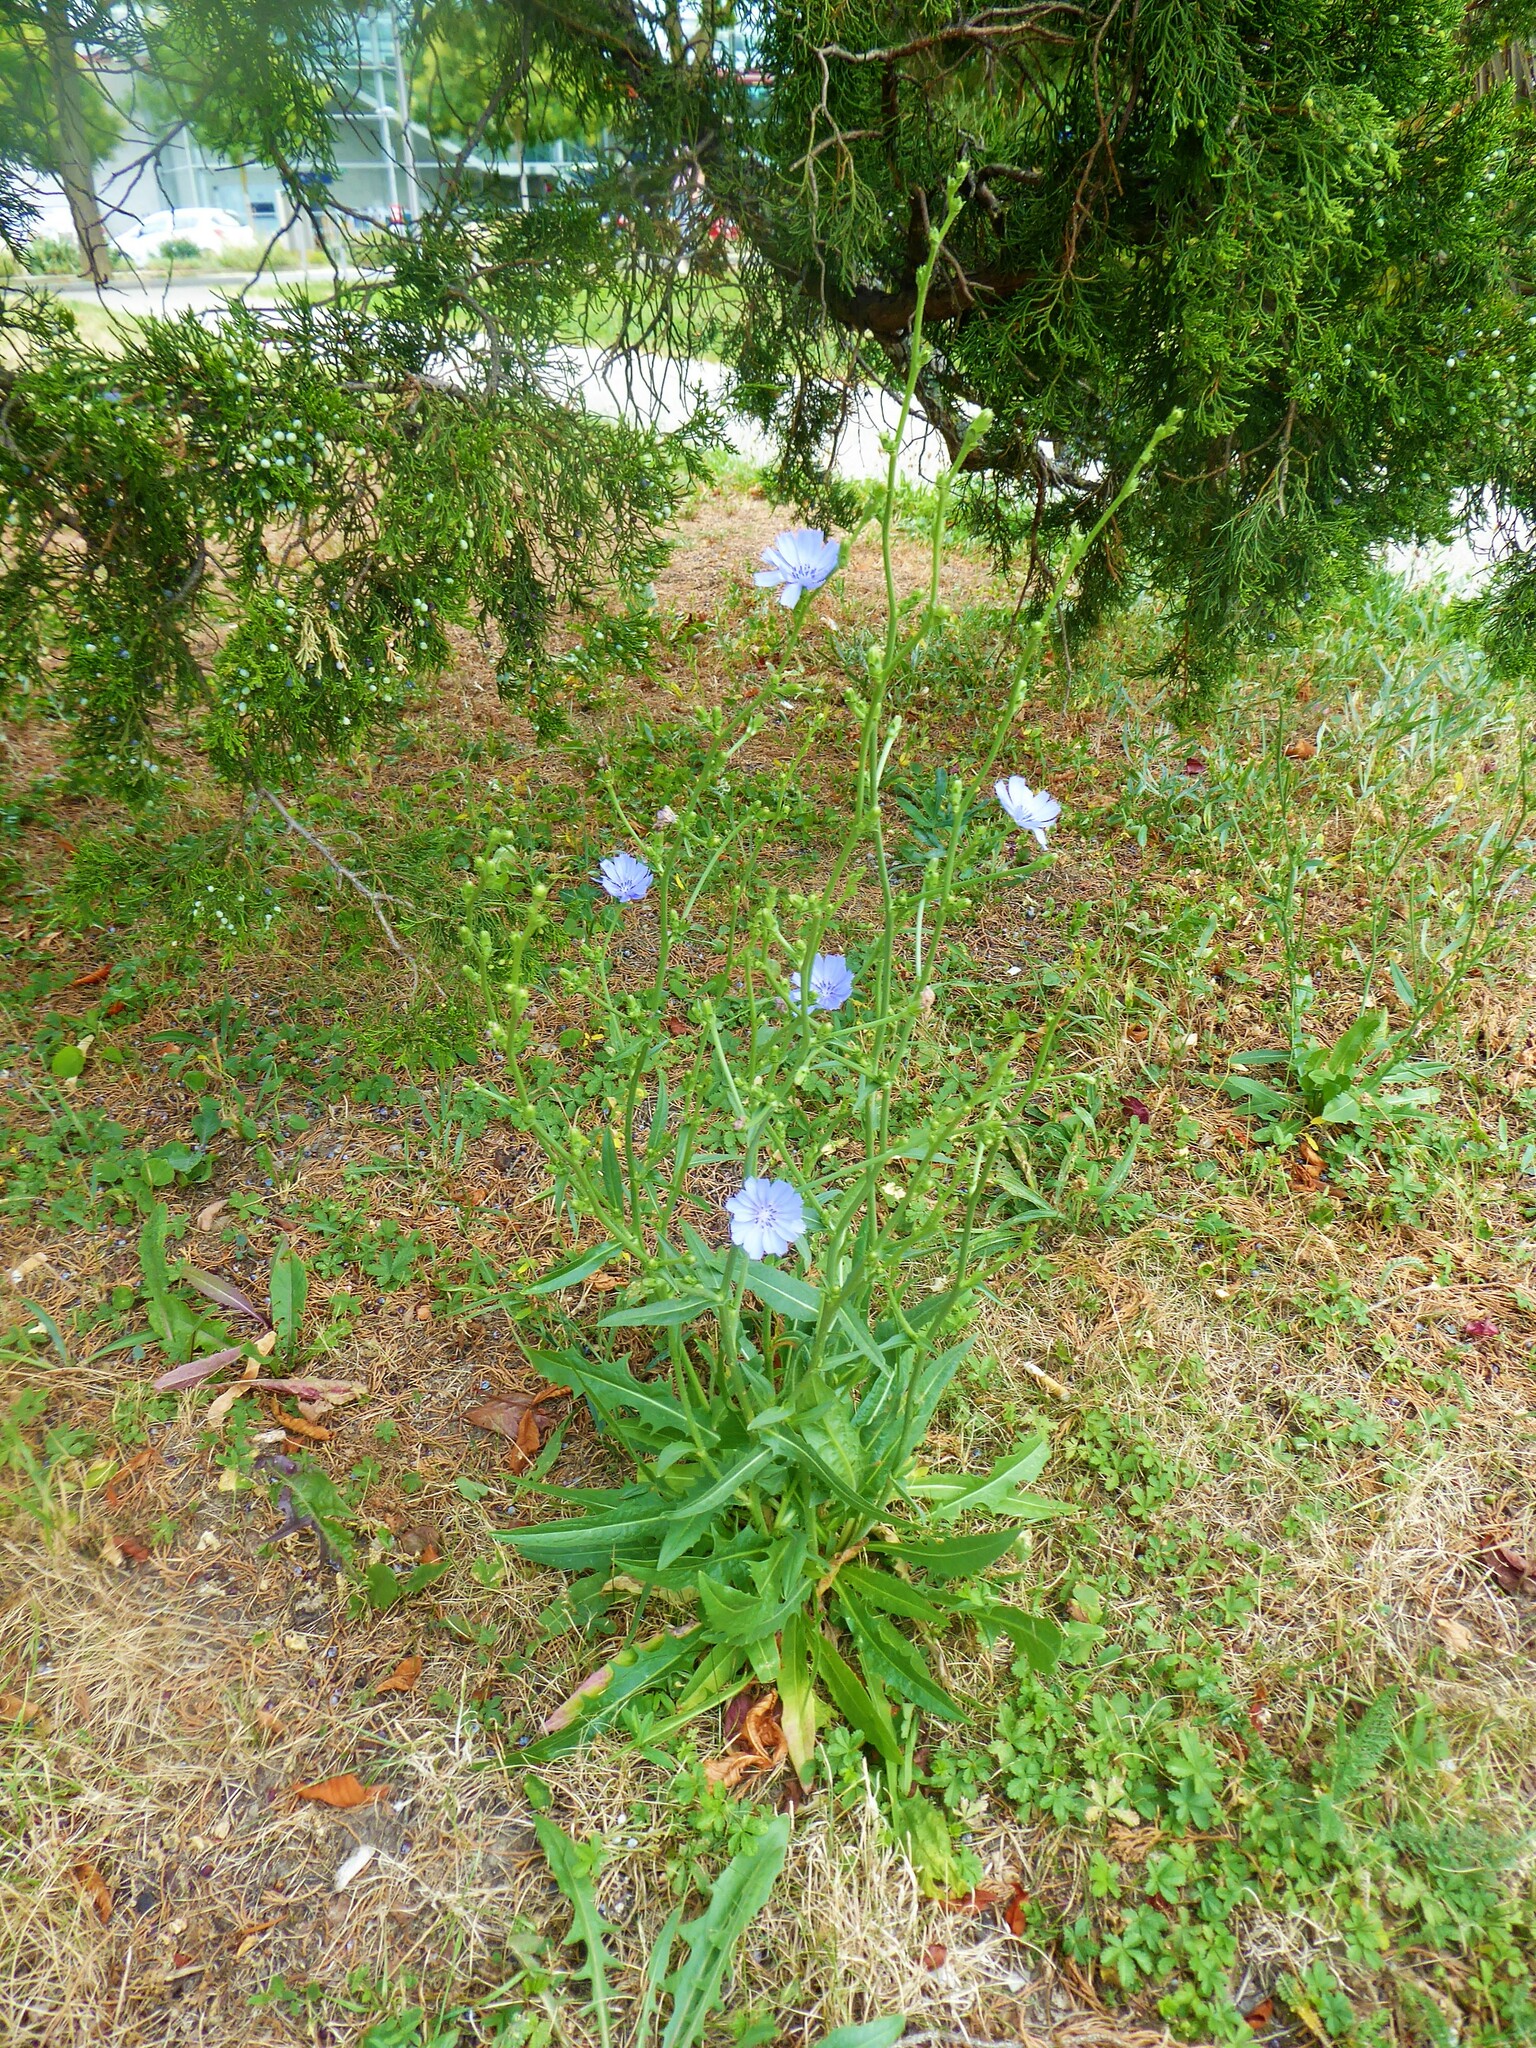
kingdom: Plantae
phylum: Tracheophyta
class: Magnoliopsida
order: Asterales
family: Asteraceae
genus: Cichorium
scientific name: Cichorium intybus
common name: Chicory
